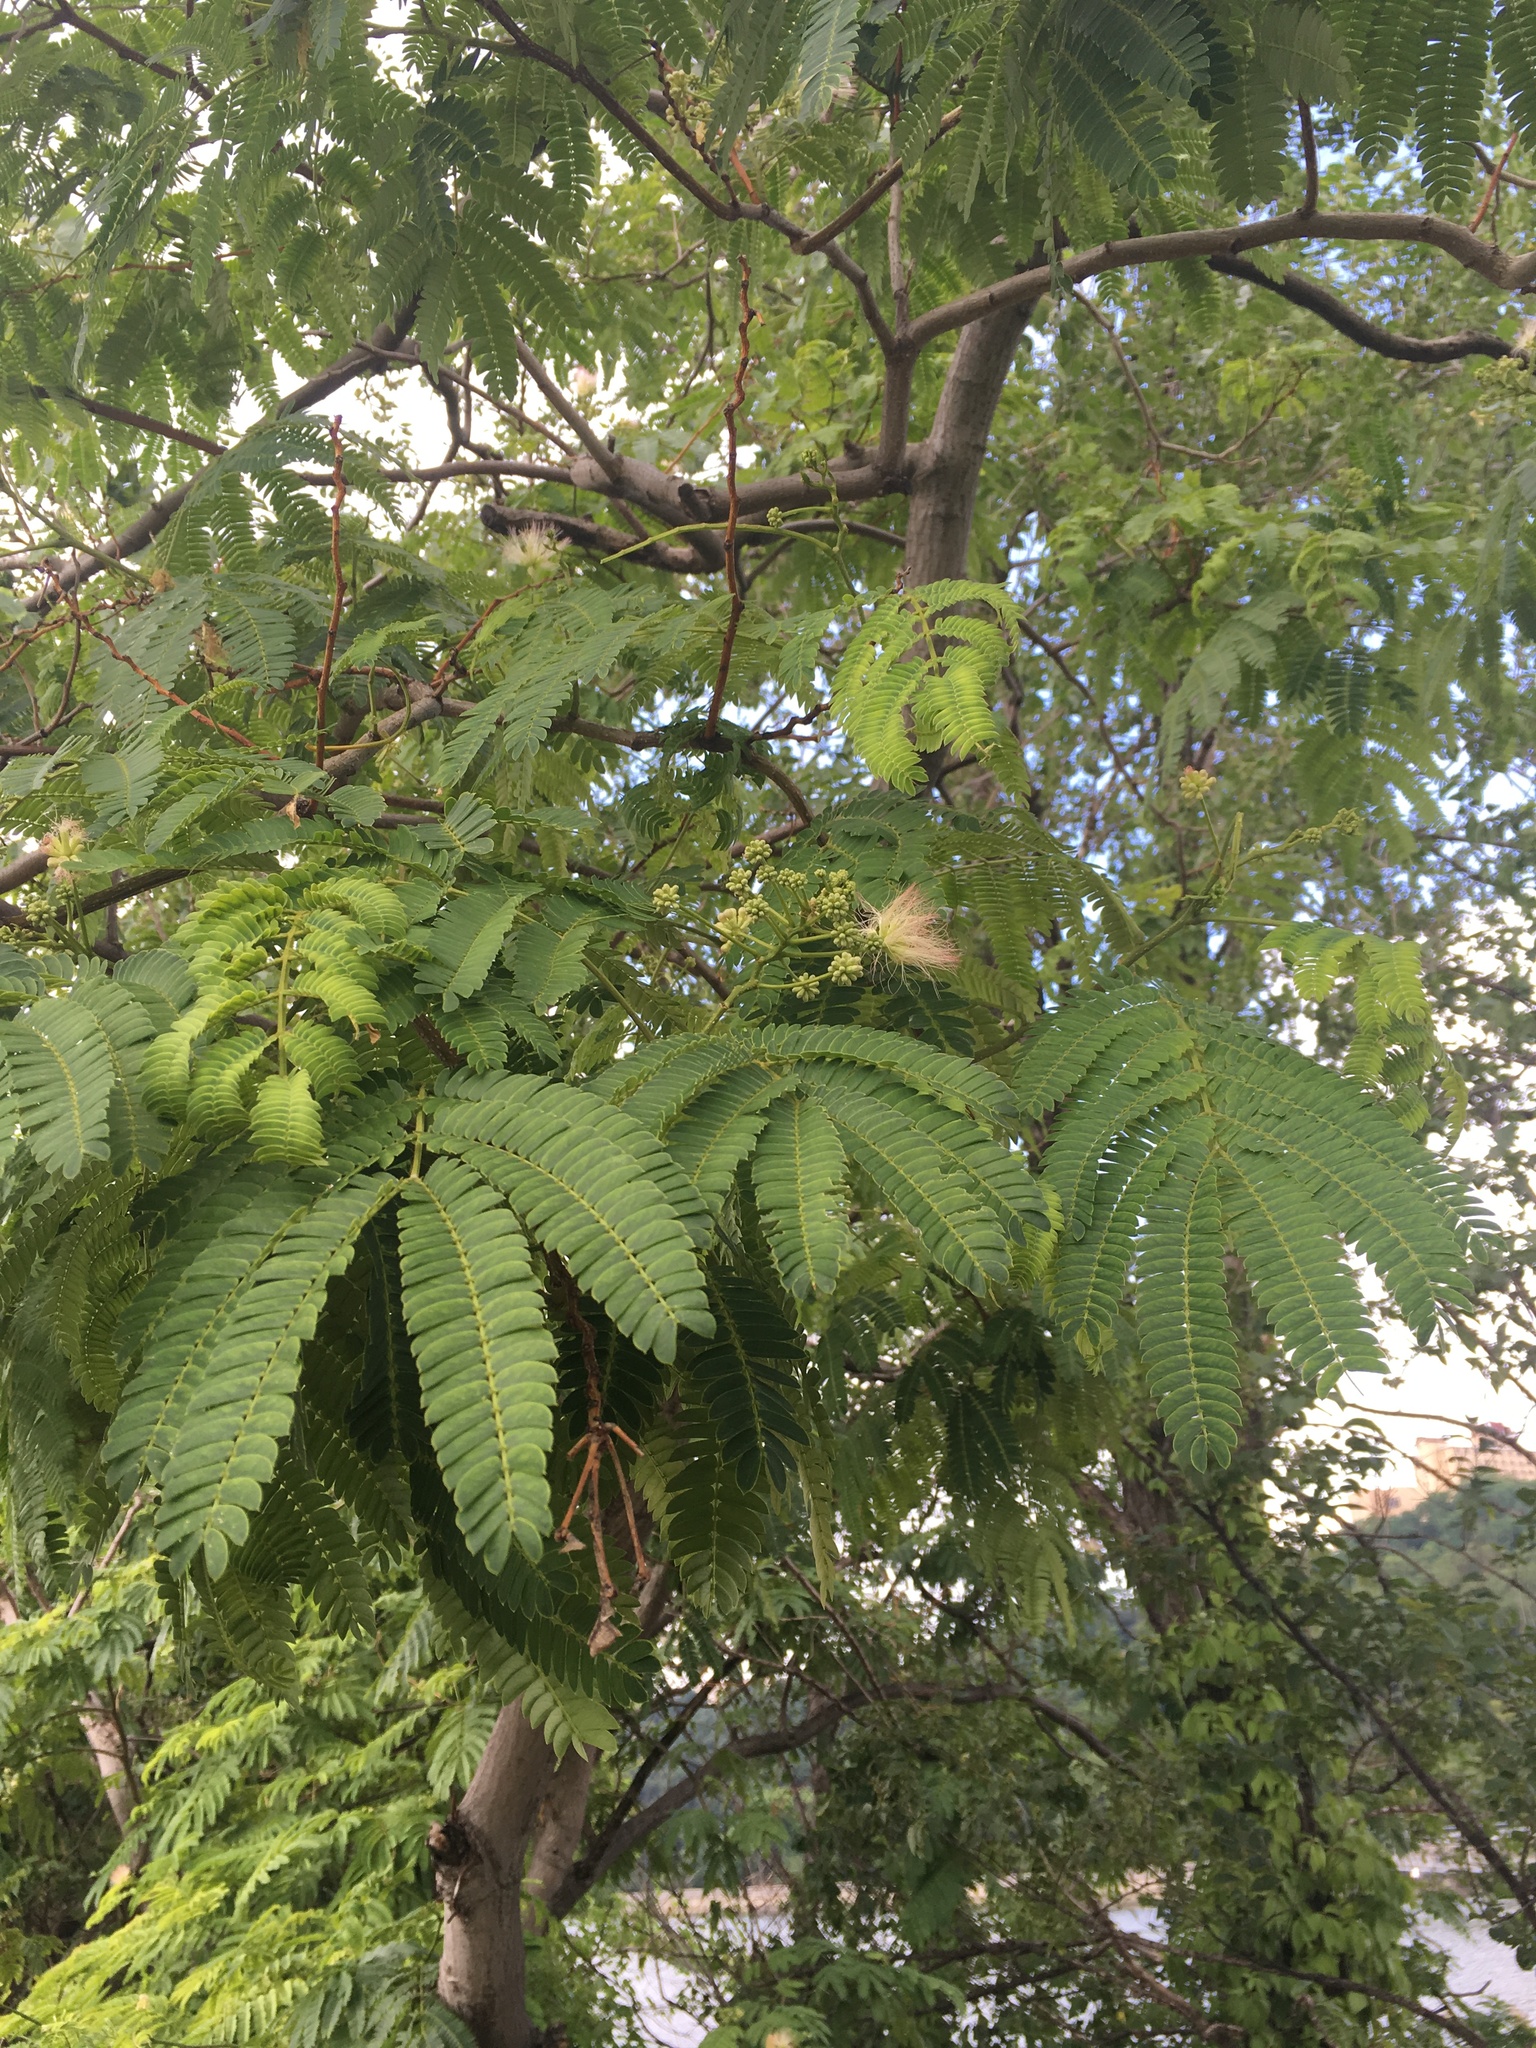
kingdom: Plantae
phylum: Tracheophyta
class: Magnoliopsida
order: Fabales
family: Fabaceae
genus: Albizia
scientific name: Albizia julibrissin
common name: Silktree
